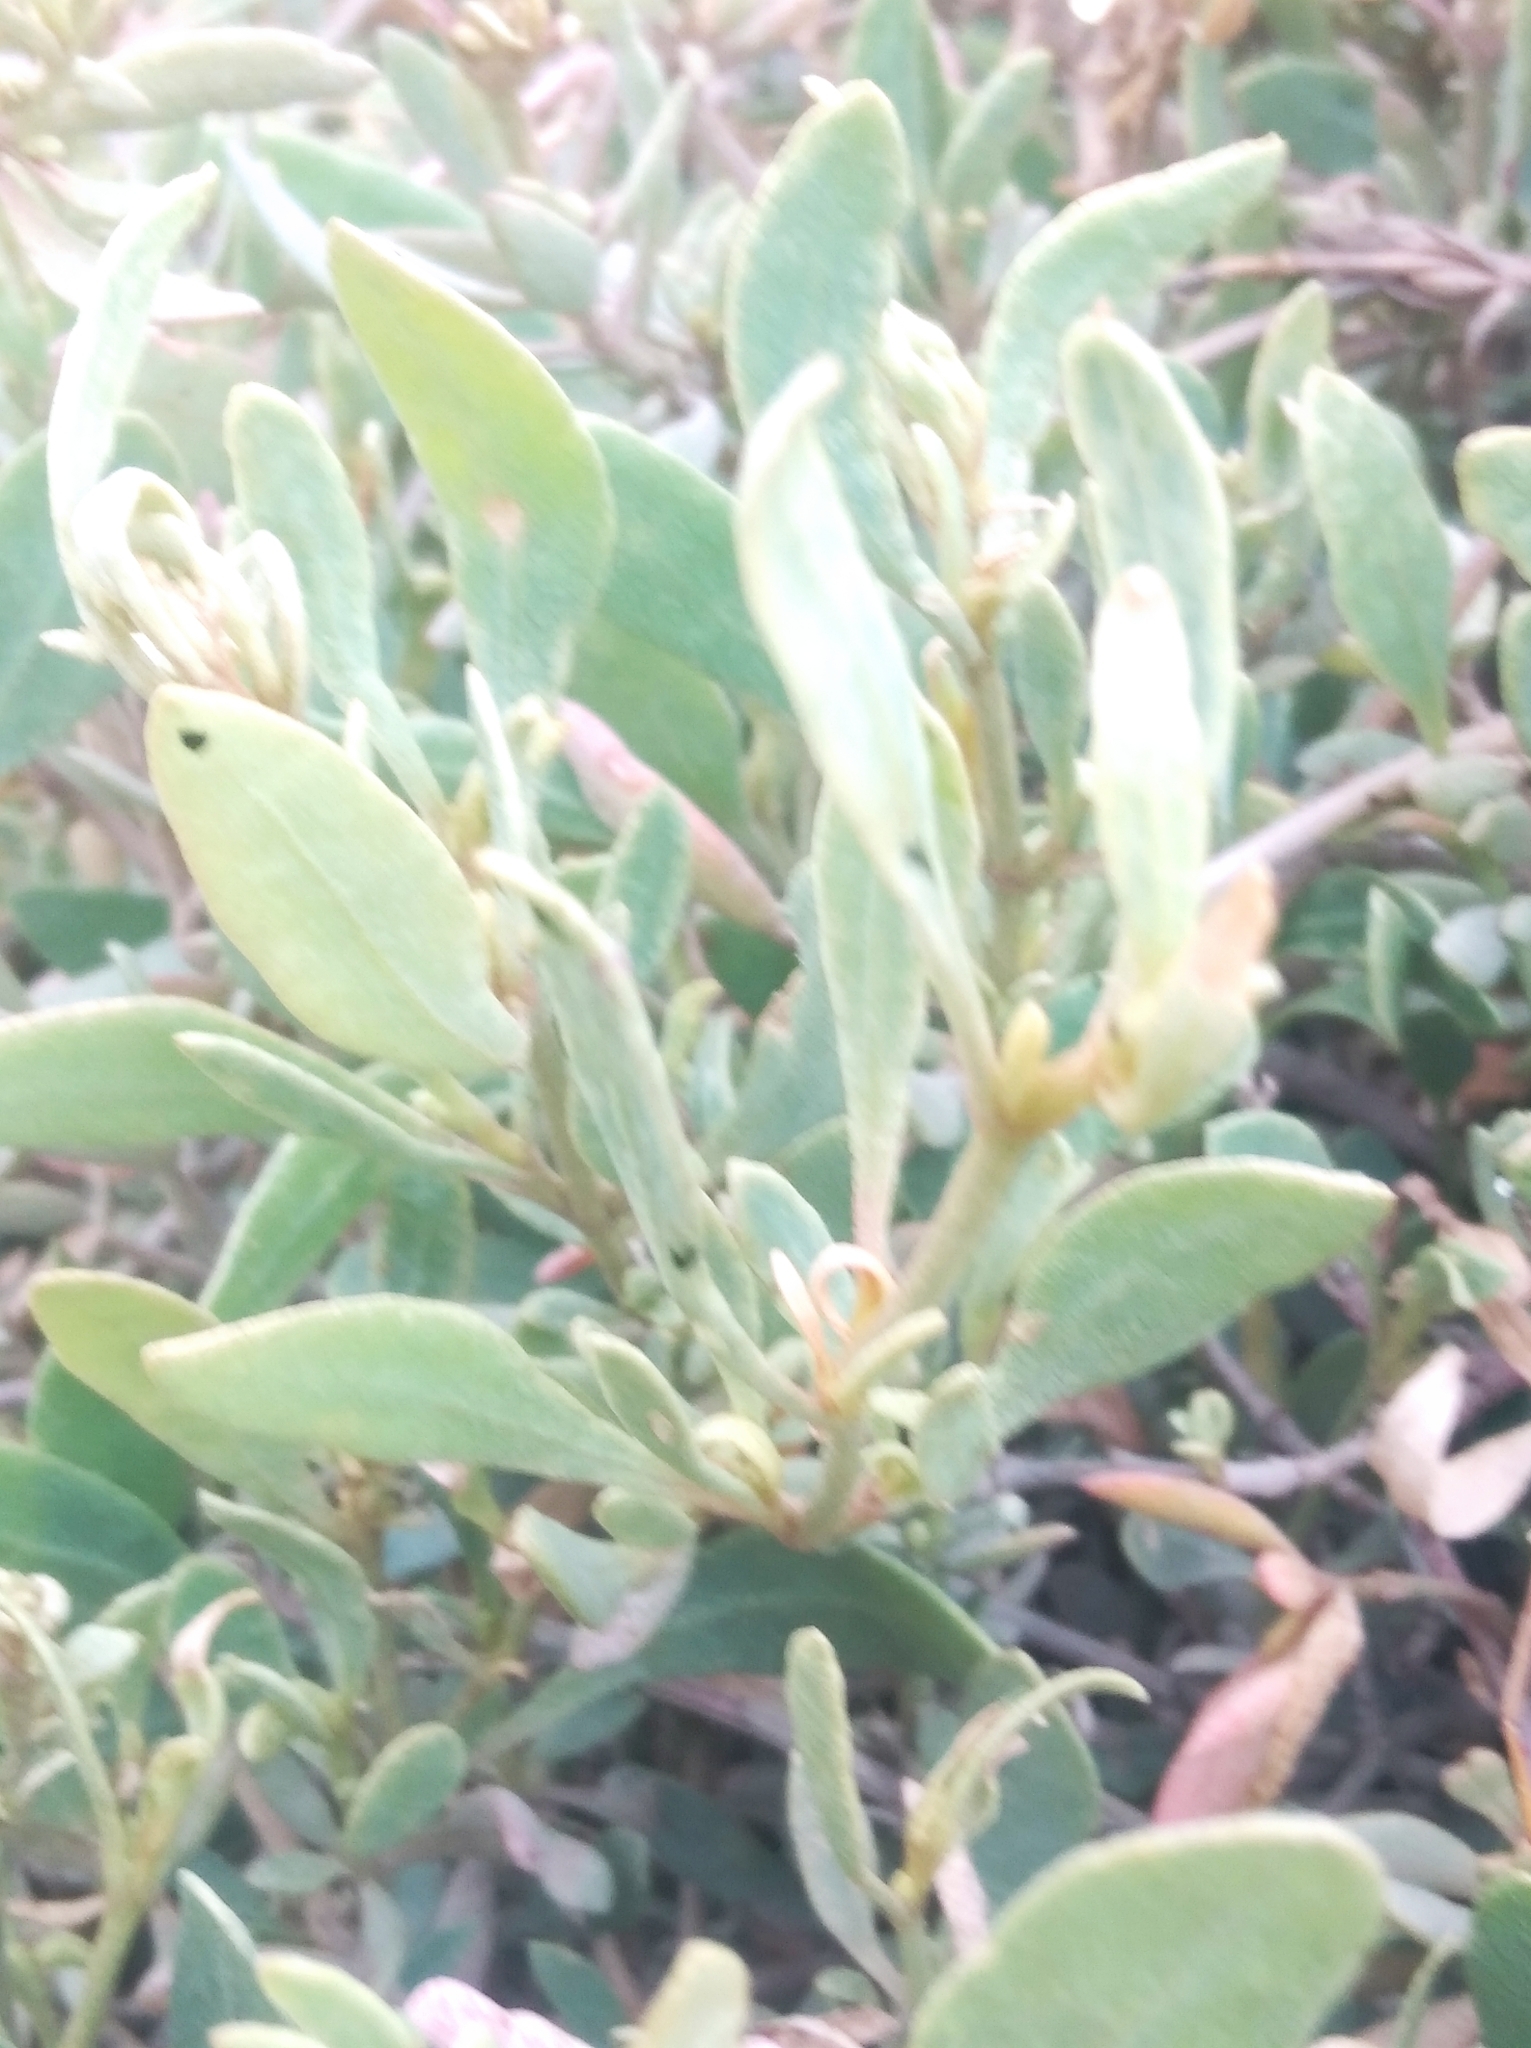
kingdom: Plantae
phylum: Tracheophyta
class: Magnoliopsida
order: Caryophyllales
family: Amaranthaceae
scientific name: Amaranthaceae
